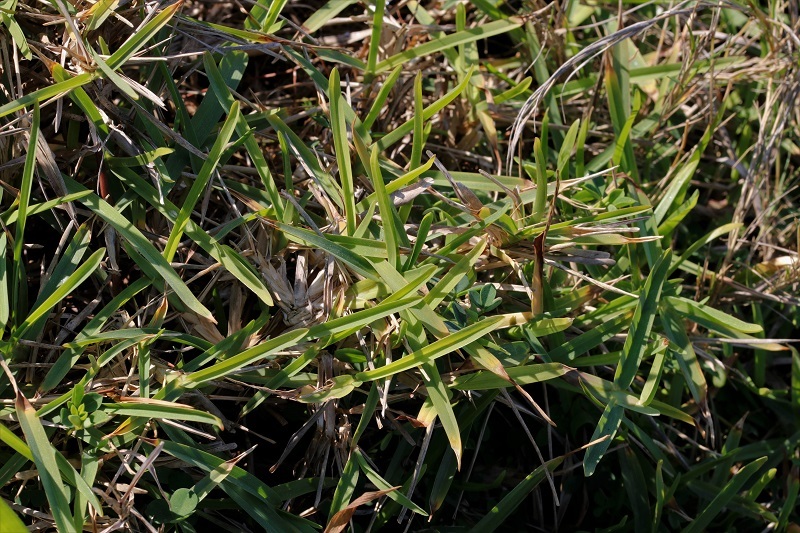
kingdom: Plantae
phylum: Tracheophyta
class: Liliopsida
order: Poales
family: Poaceae
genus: Stenotaphrum
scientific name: Stenotaphrum secundatum
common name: St. augustine grass
